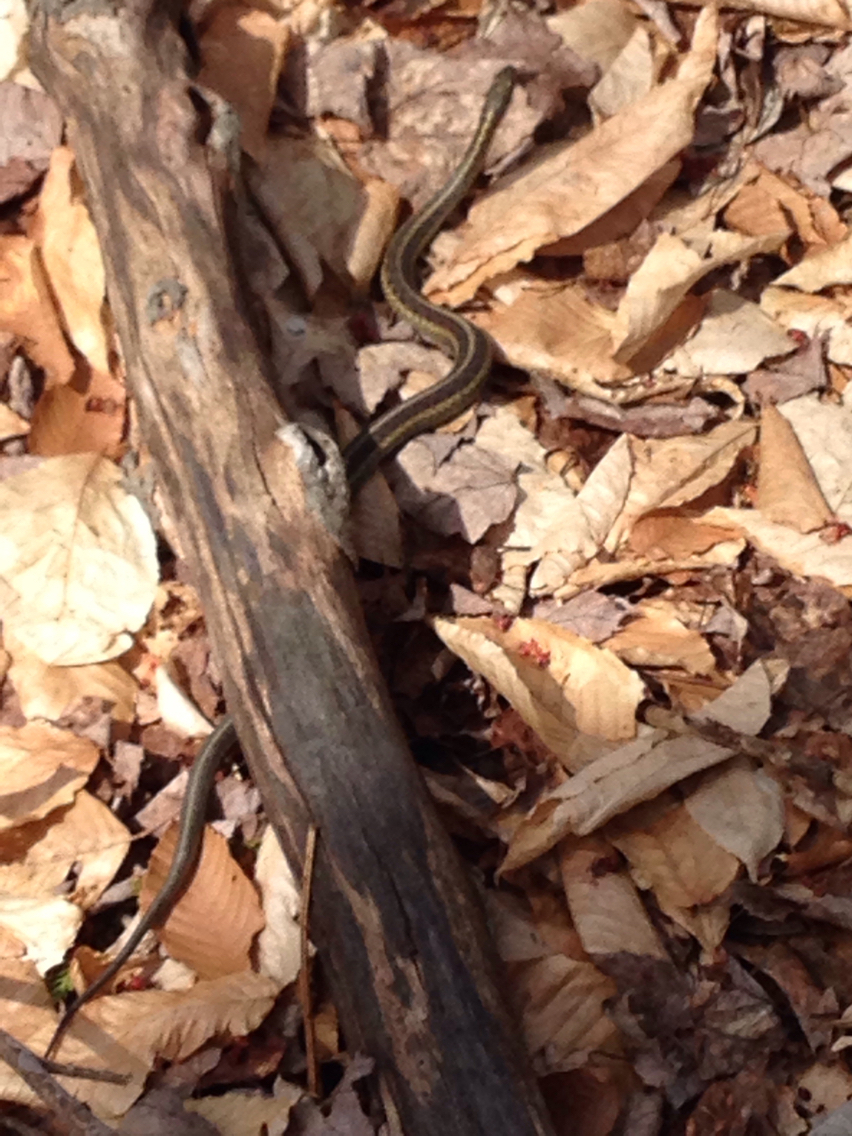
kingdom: Animalia
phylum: Chordata
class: Squamata
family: Colubridae
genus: Thamnophis
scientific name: Thamnophis sirtalis
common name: Common garter snake
